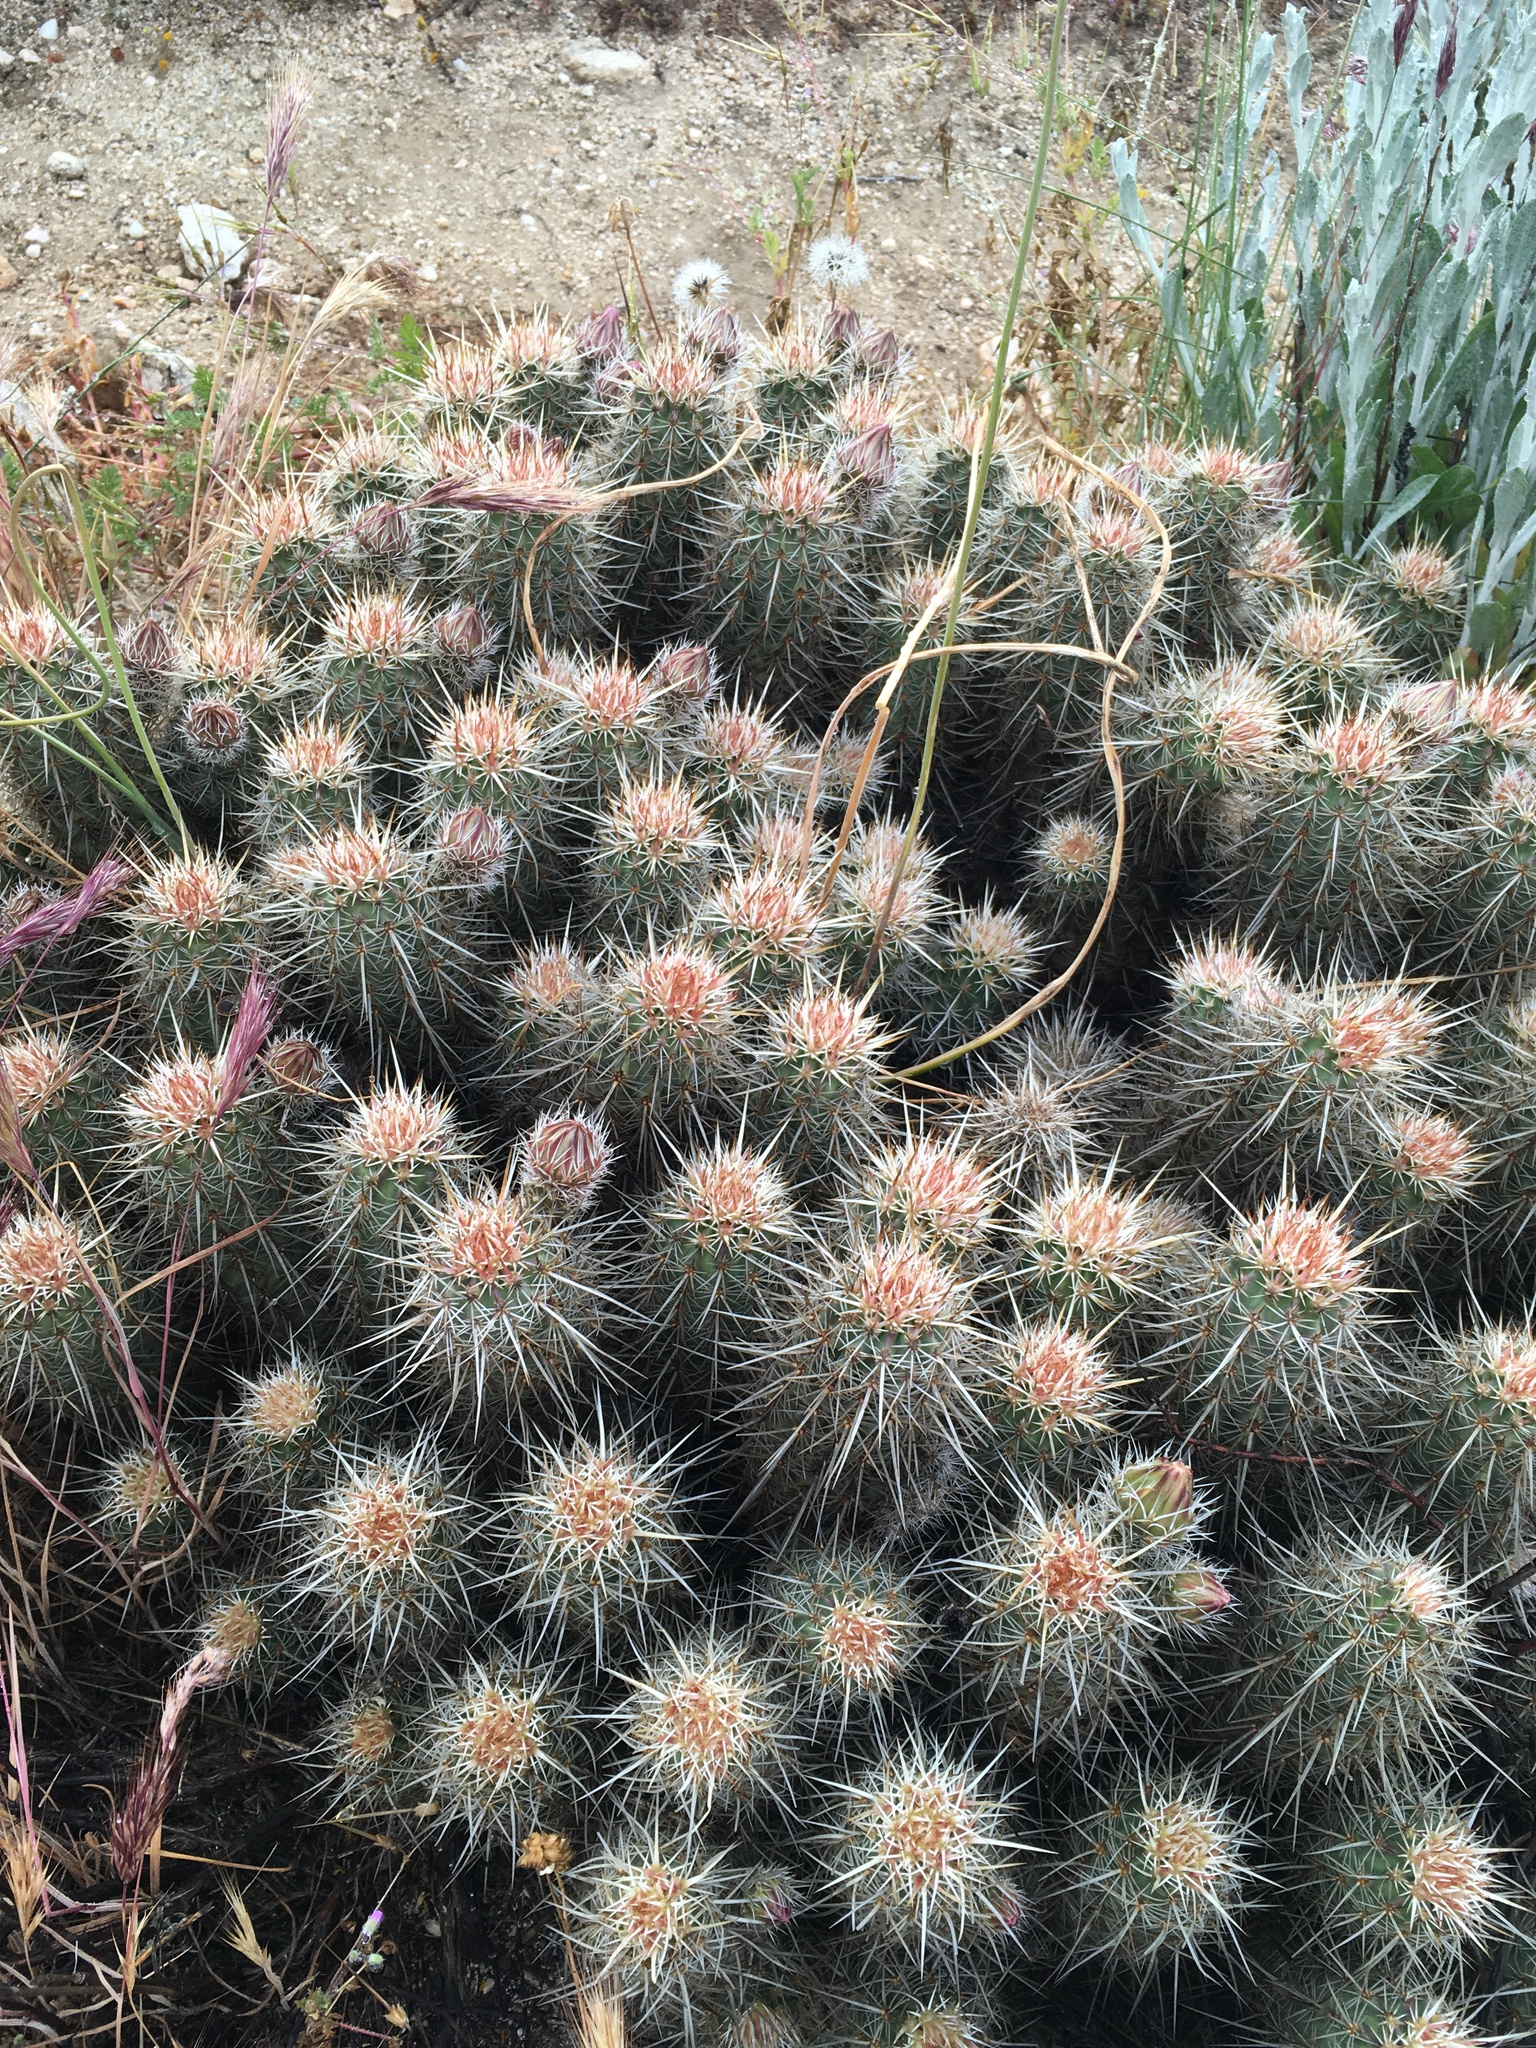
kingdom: Plantae
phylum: Tracheophyta
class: Magnoliopsida
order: Caryophyllales
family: Cactaceae
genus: Echinocereus
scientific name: Echinocereus engelmannii
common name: Engelmann's hedgehog cactus
